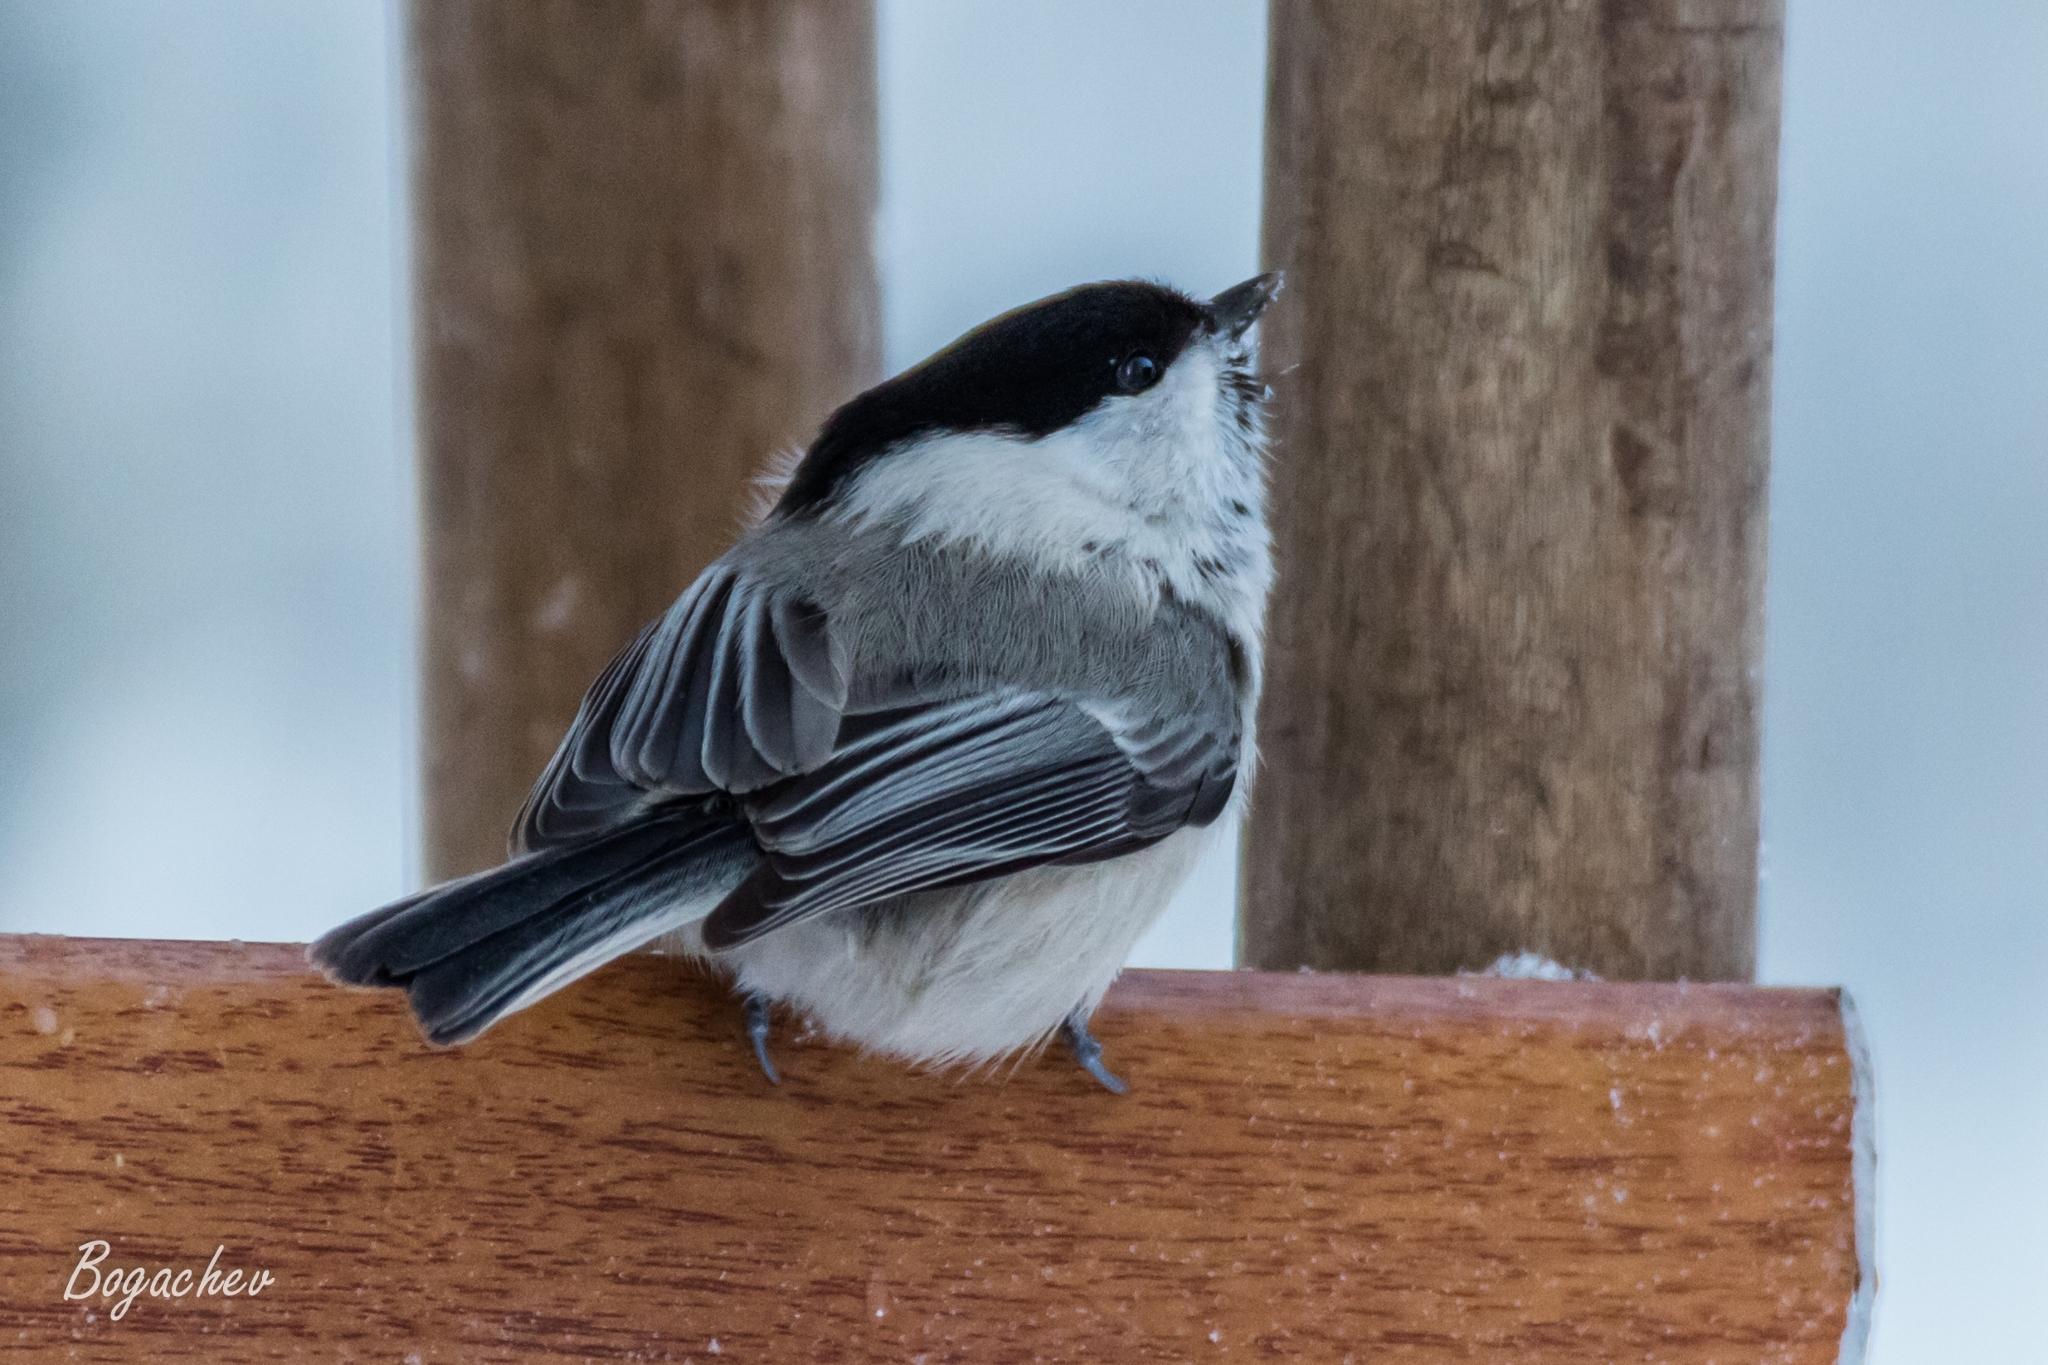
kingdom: Animalia
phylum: Chordata
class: Aves
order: Passeriformes
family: Paridae
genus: Poecile
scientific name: Poecile montanus
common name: Willow tit
